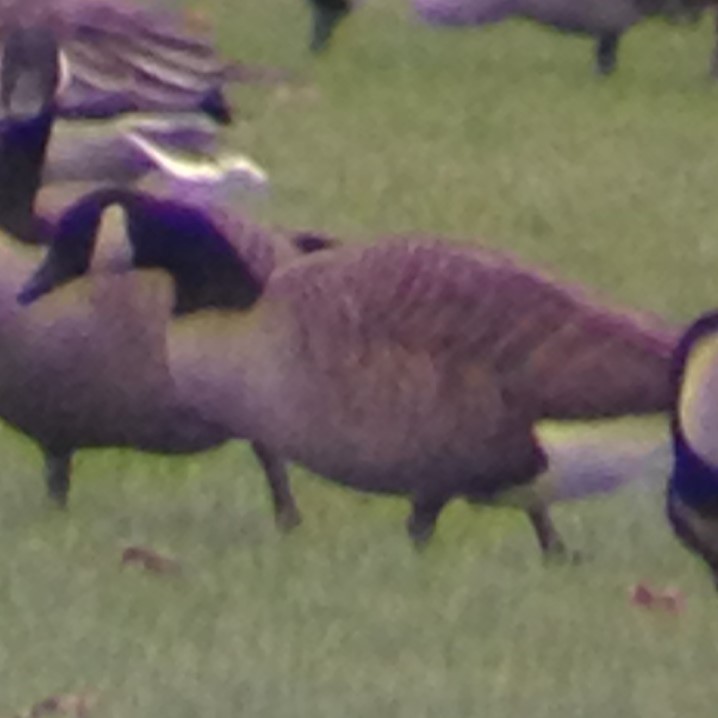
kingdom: Animalia
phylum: Chordata
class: Aves
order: Anseriformes
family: Anatidae
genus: Branta
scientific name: Branta canadensis
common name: Canada goose
